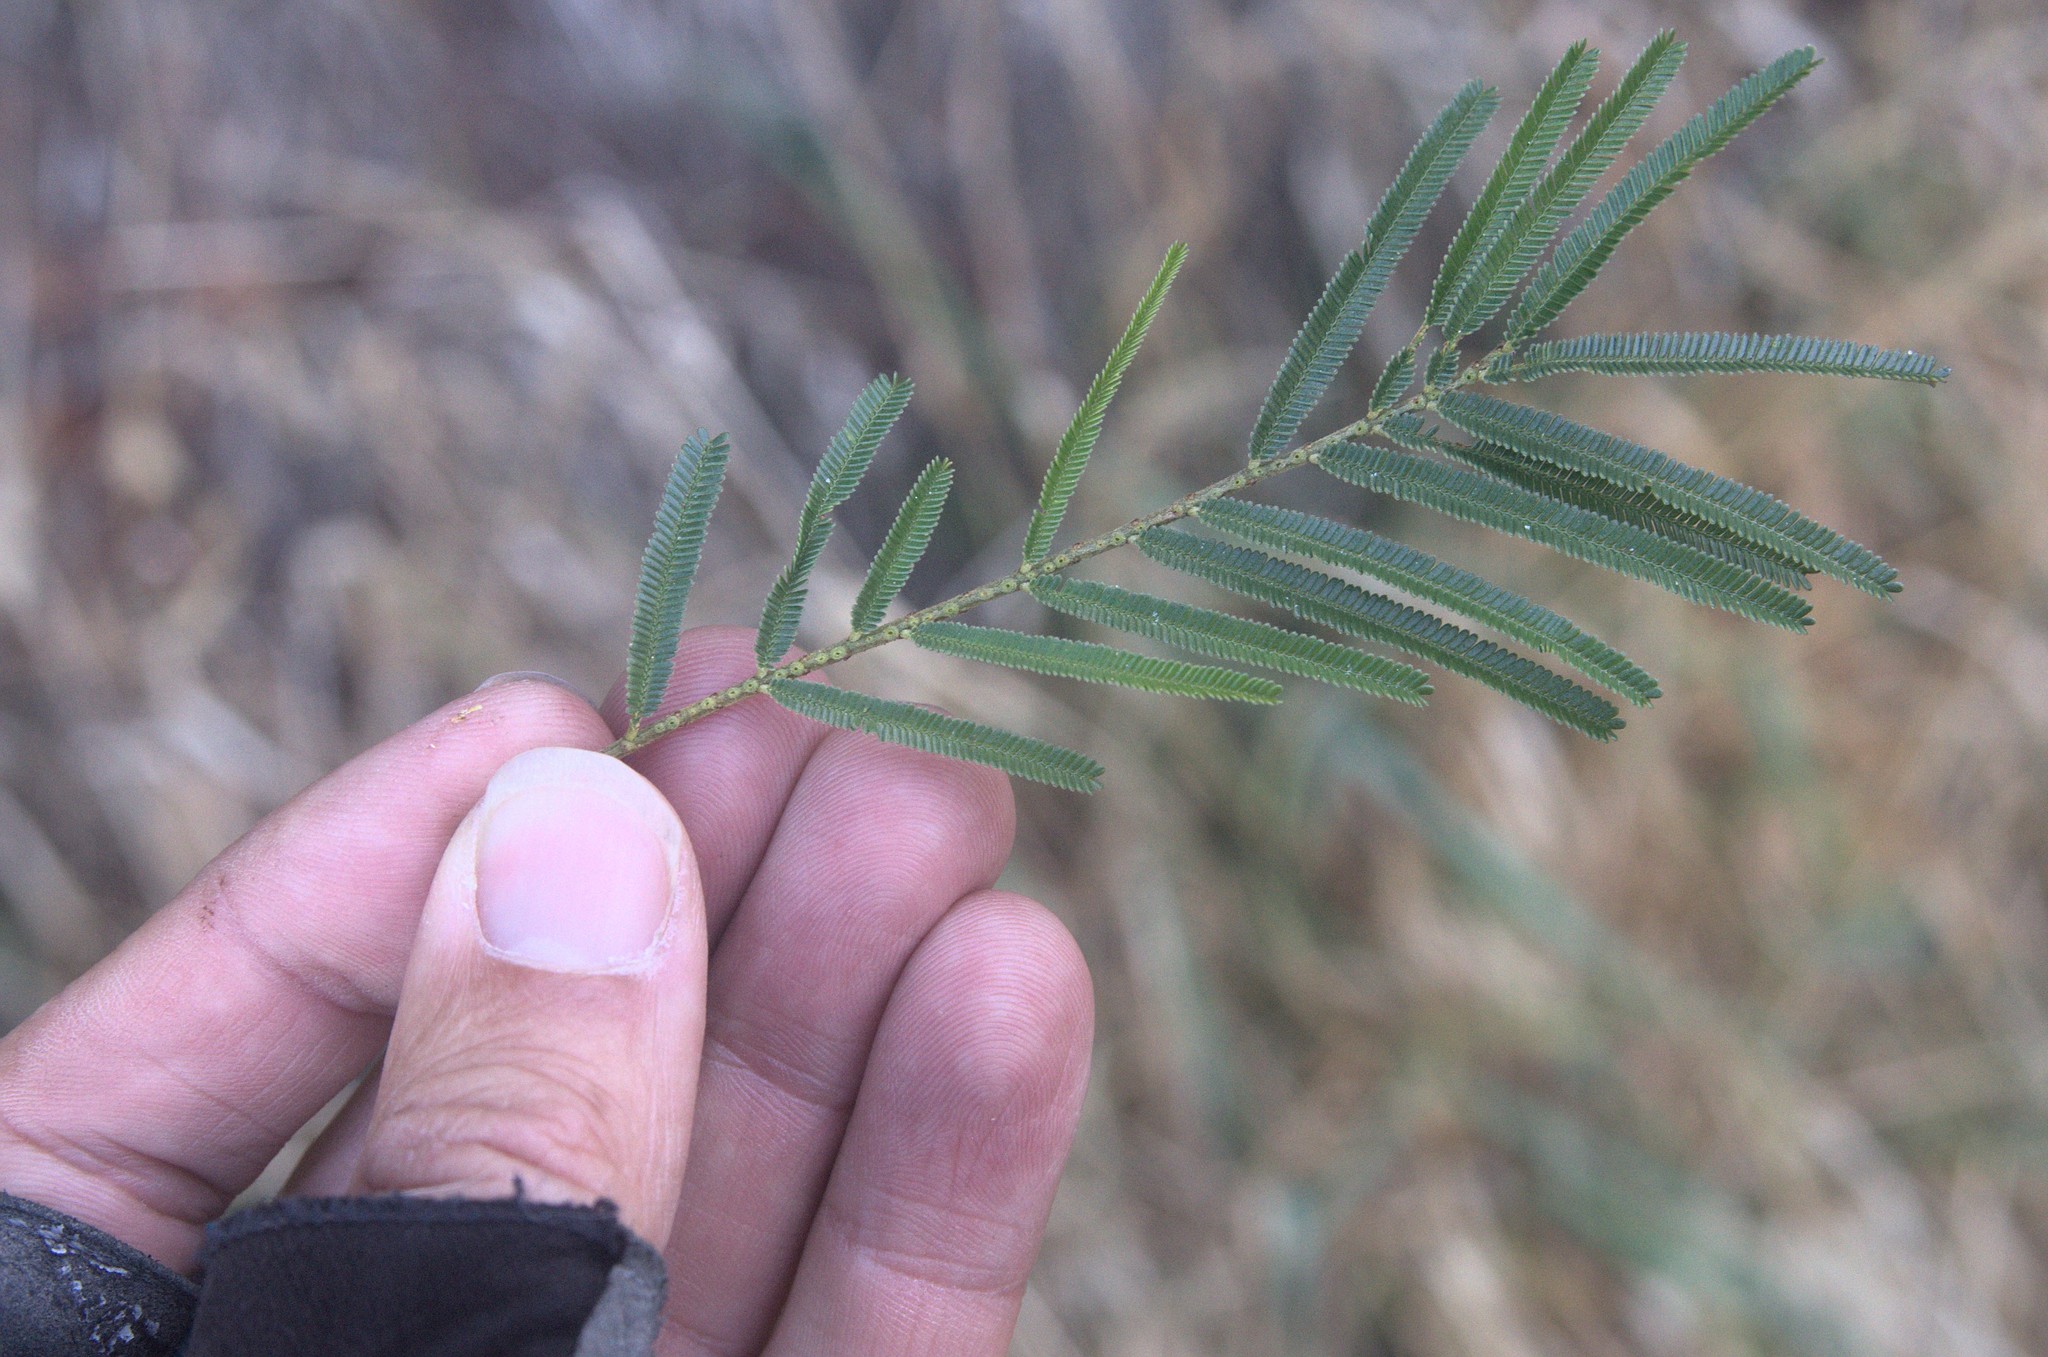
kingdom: Plantae
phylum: Tracheophyta
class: Magnoliopsida
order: Fabales
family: Fabaceae
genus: Acacia
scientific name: Acacia mearnsii
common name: Black wattle
